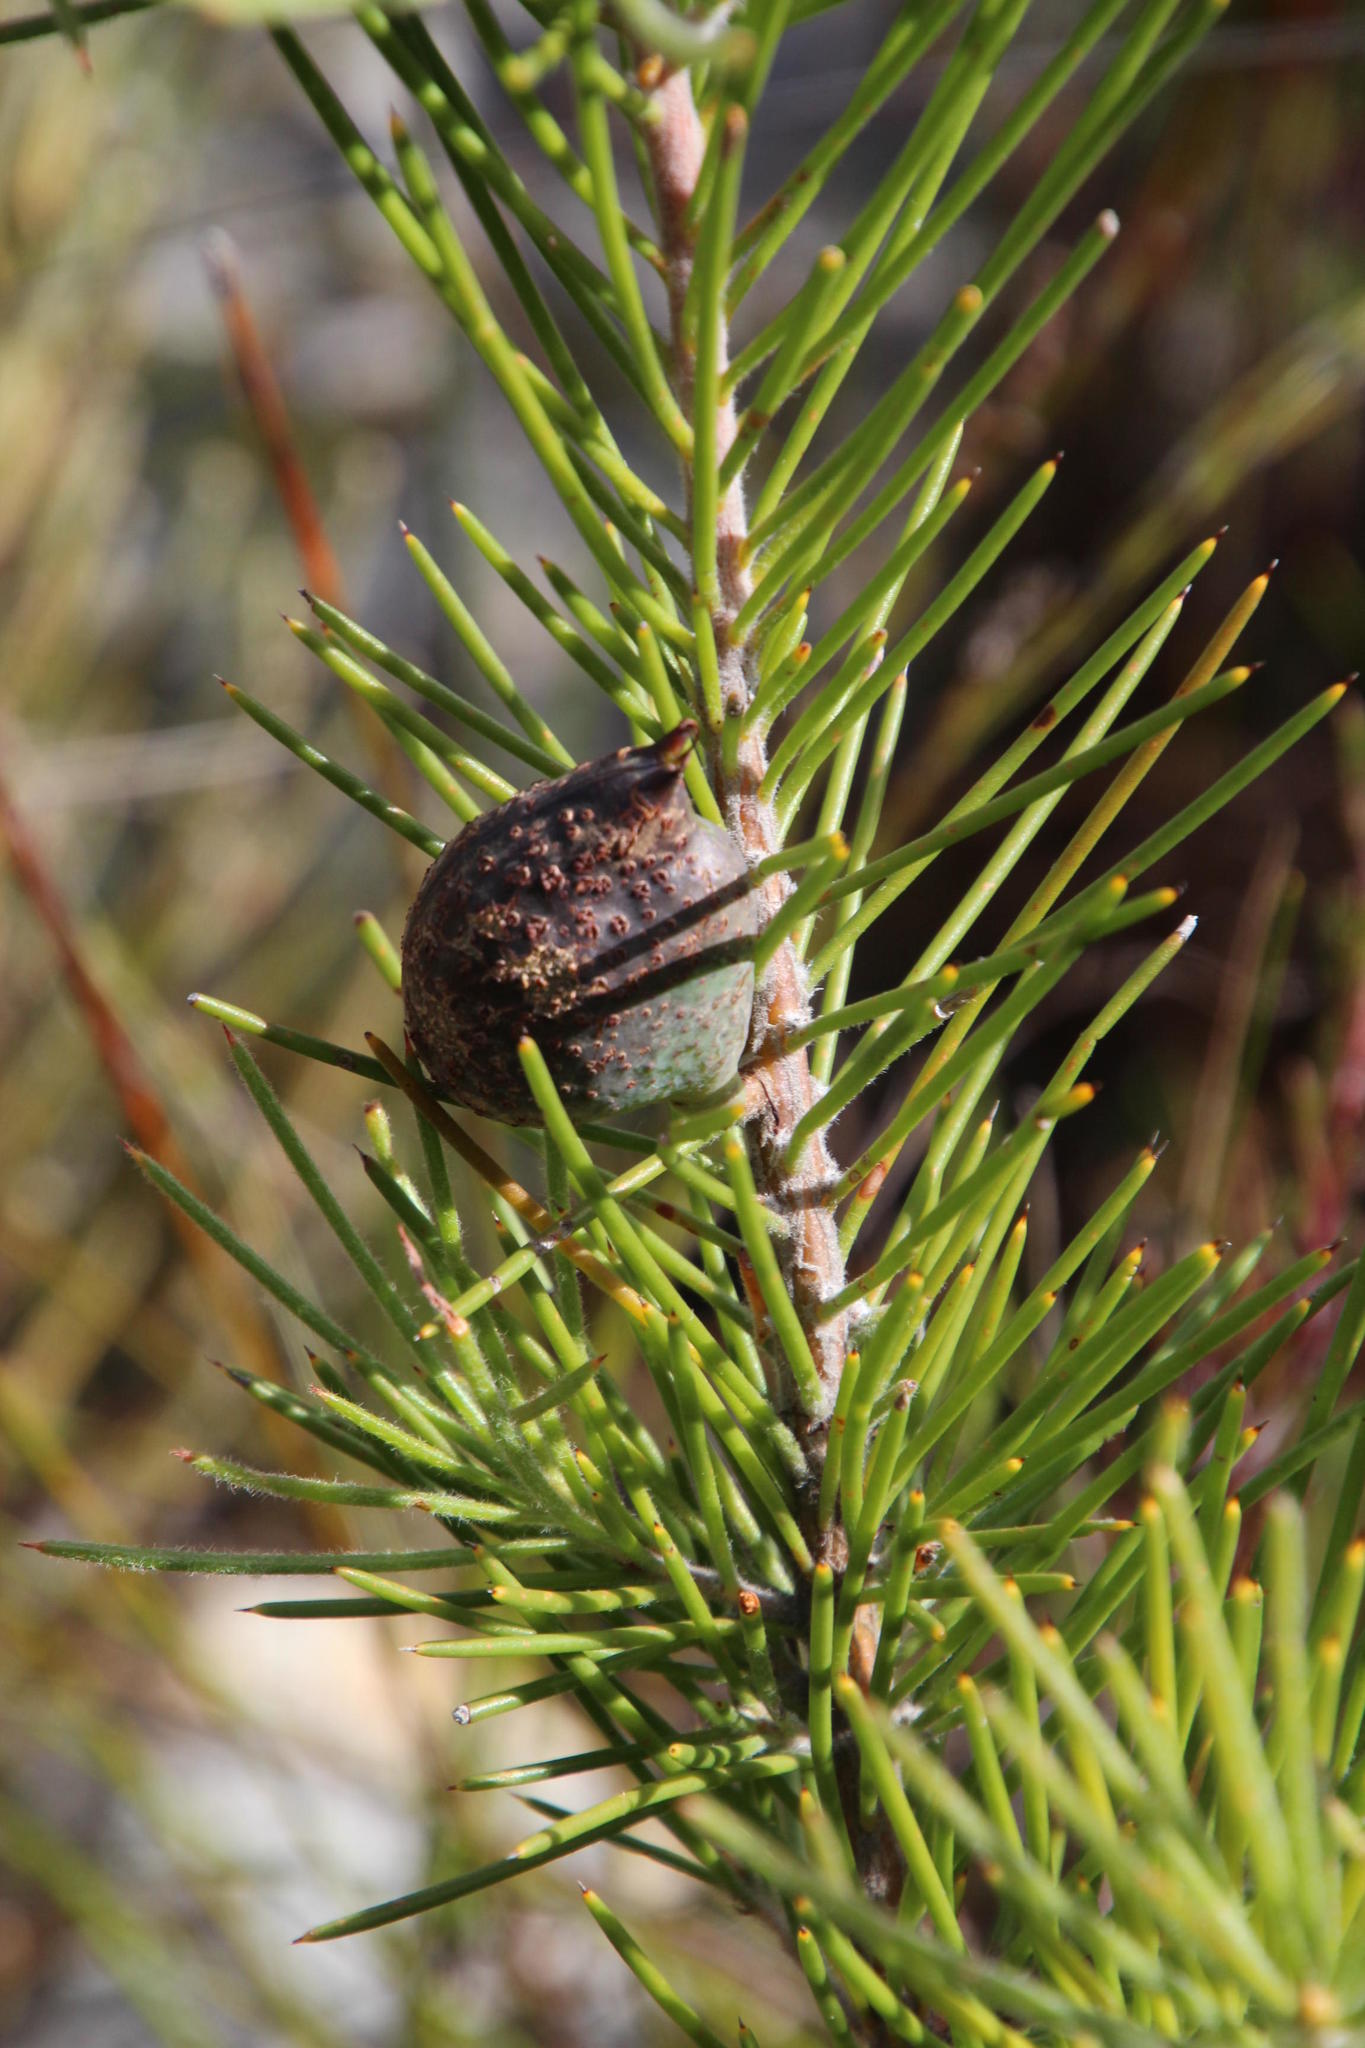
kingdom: Plantae
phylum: Tracheophyta
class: Magnoliopsida
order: Proteales
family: Proteaceae
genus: Hakea
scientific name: Hakea gibbosa
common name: Rock hakea
